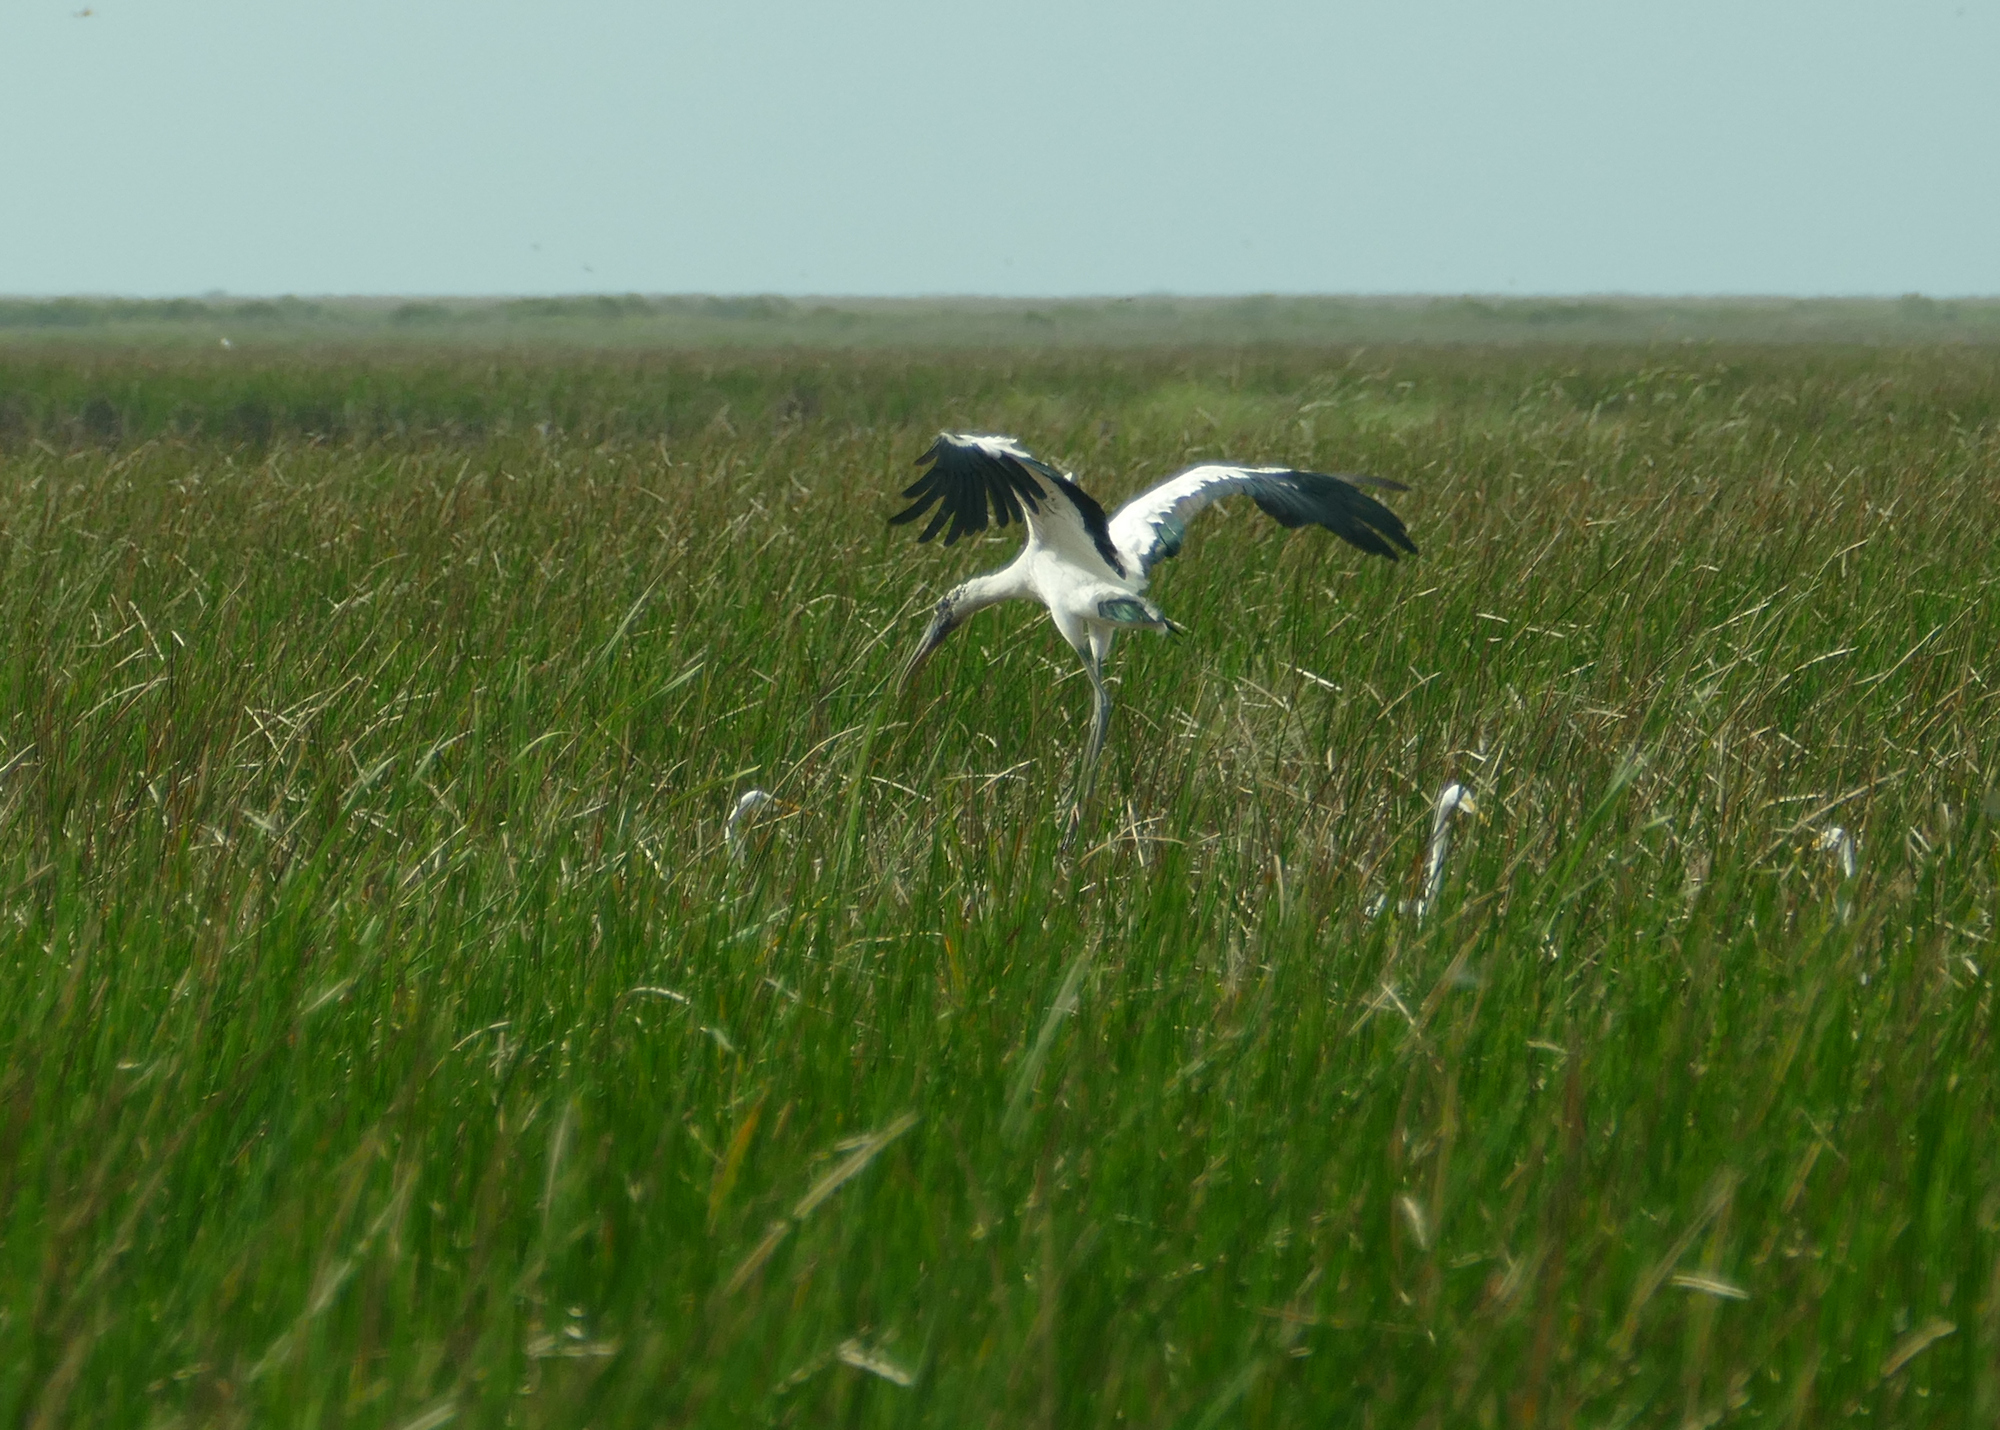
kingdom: Animalia
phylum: Chordata
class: Aves
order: Ciconiiformes
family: Ciconiidae
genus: Mycteria
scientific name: Mycteria americana
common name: Wood stork
